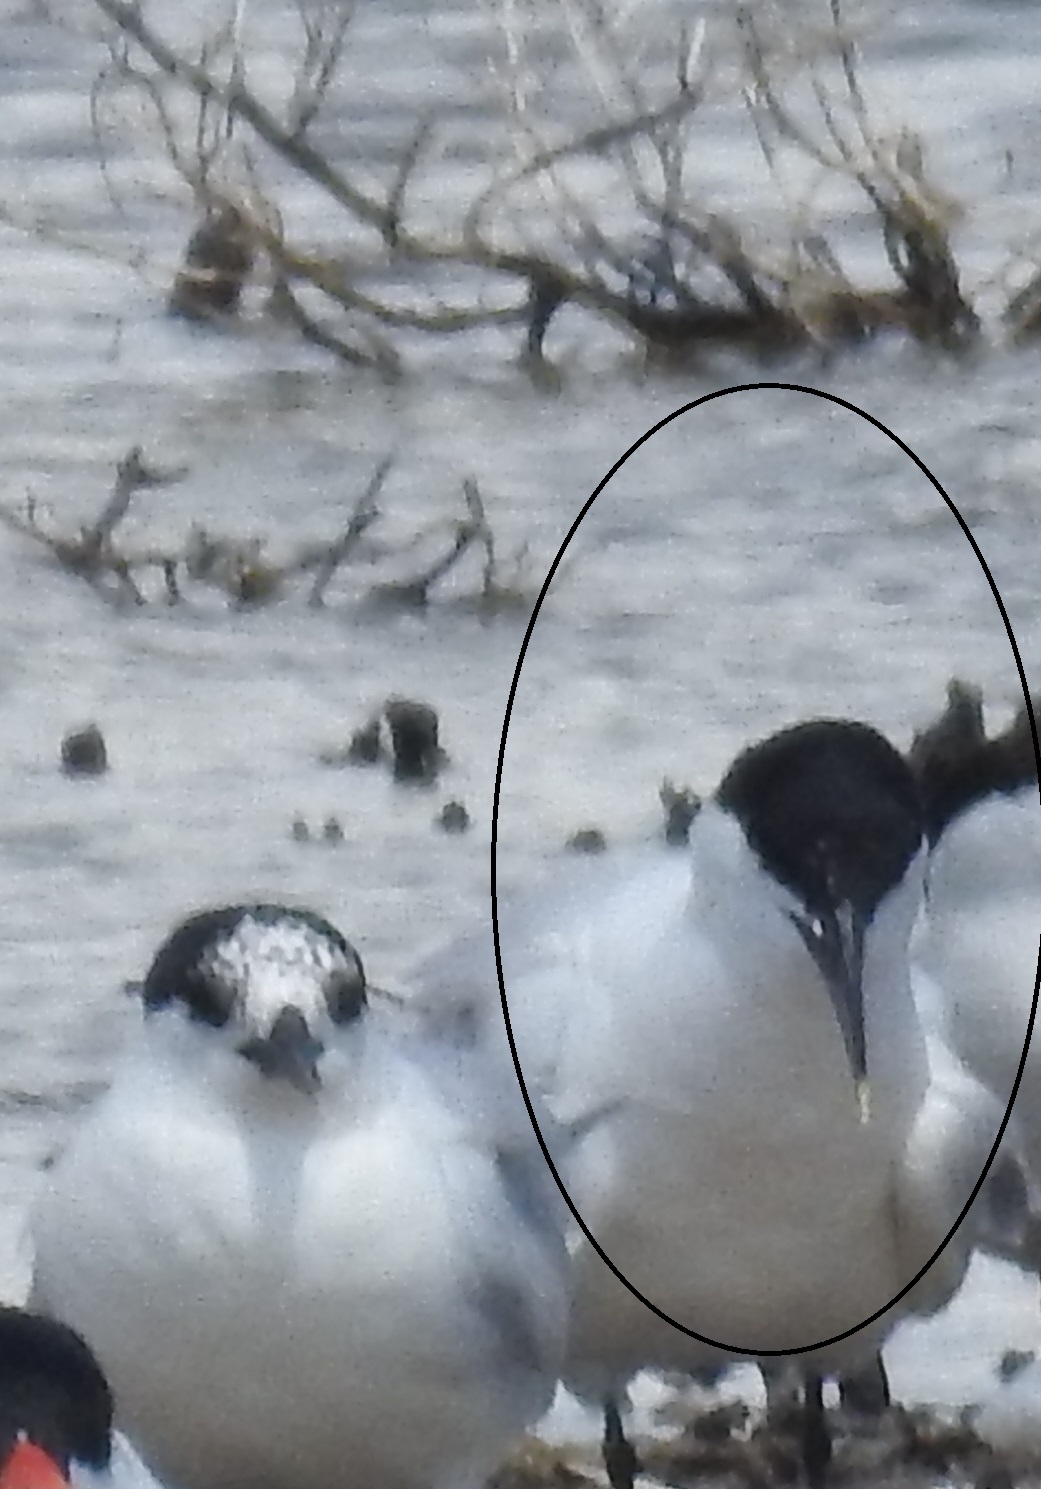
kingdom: Animalia
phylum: Chordata
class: Aves
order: Charadriiformes
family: Laridae
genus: Thalasseus
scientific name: Thalasseus sandvicensis
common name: Sandwich tern
